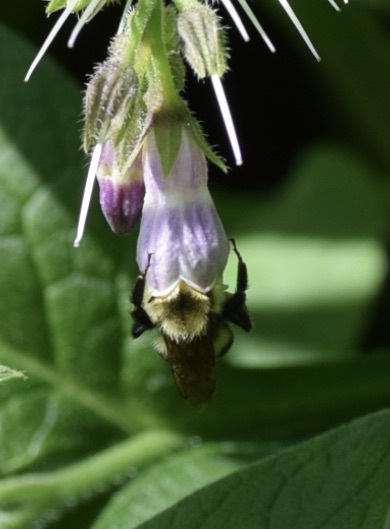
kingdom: Animalia
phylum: Arthropoda
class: Insecta
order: Hymenoptera
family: Apidae
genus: Bombus
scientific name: Bombus bimaculatus
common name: Two-spotted bumble bee
